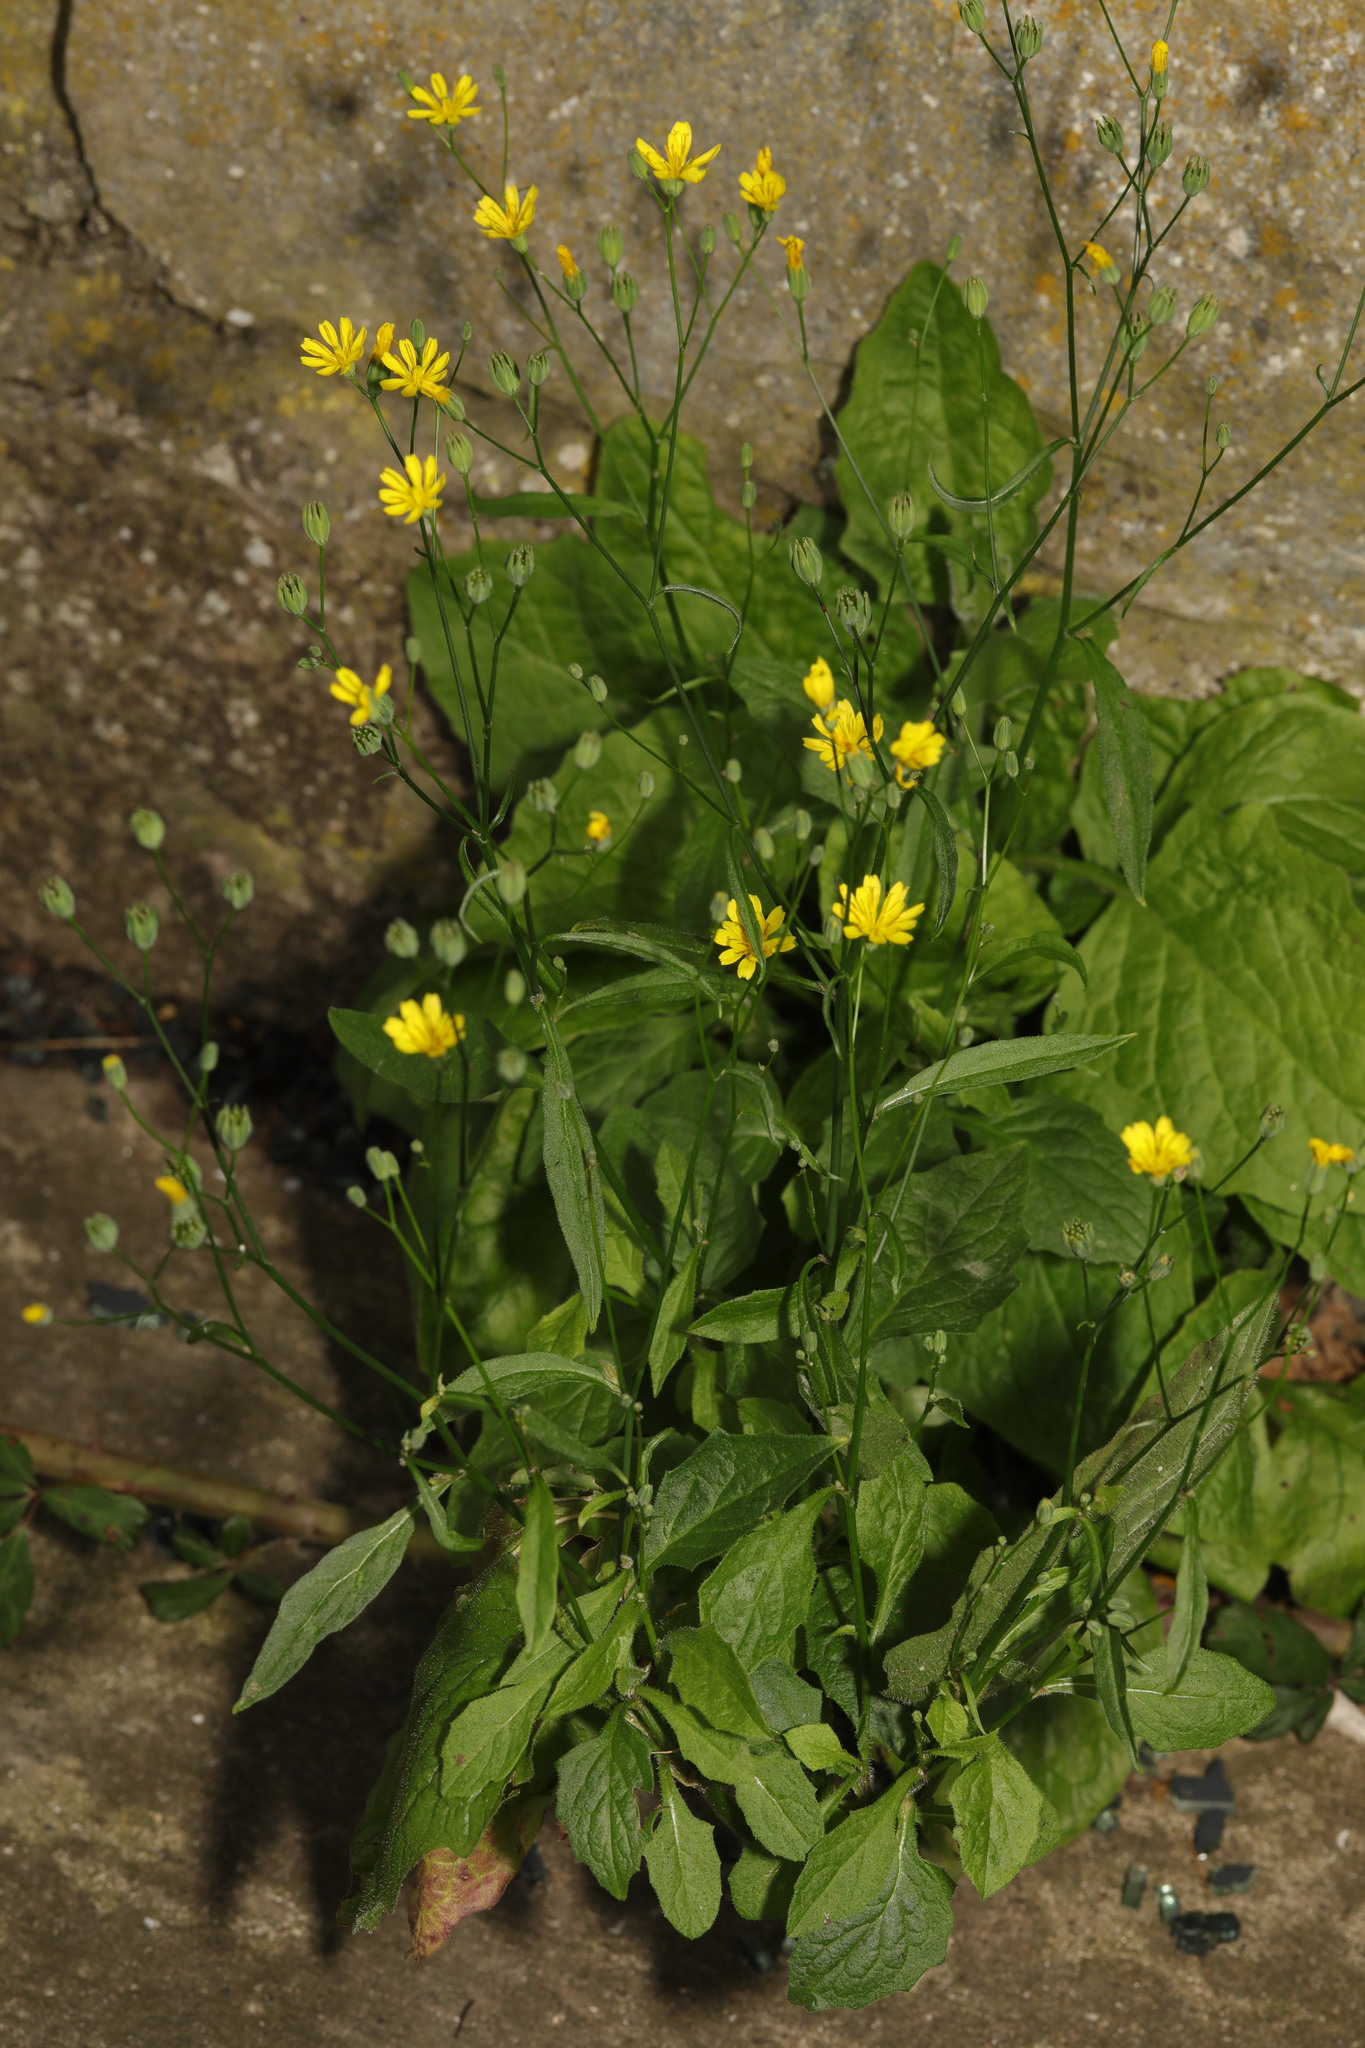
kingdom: Plantae
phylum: Tracheophyta
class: Magnoliopsida
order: Asterales
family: Asteraceae
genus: Lapsana
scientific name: Lapsana communis
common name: Nipplewort
